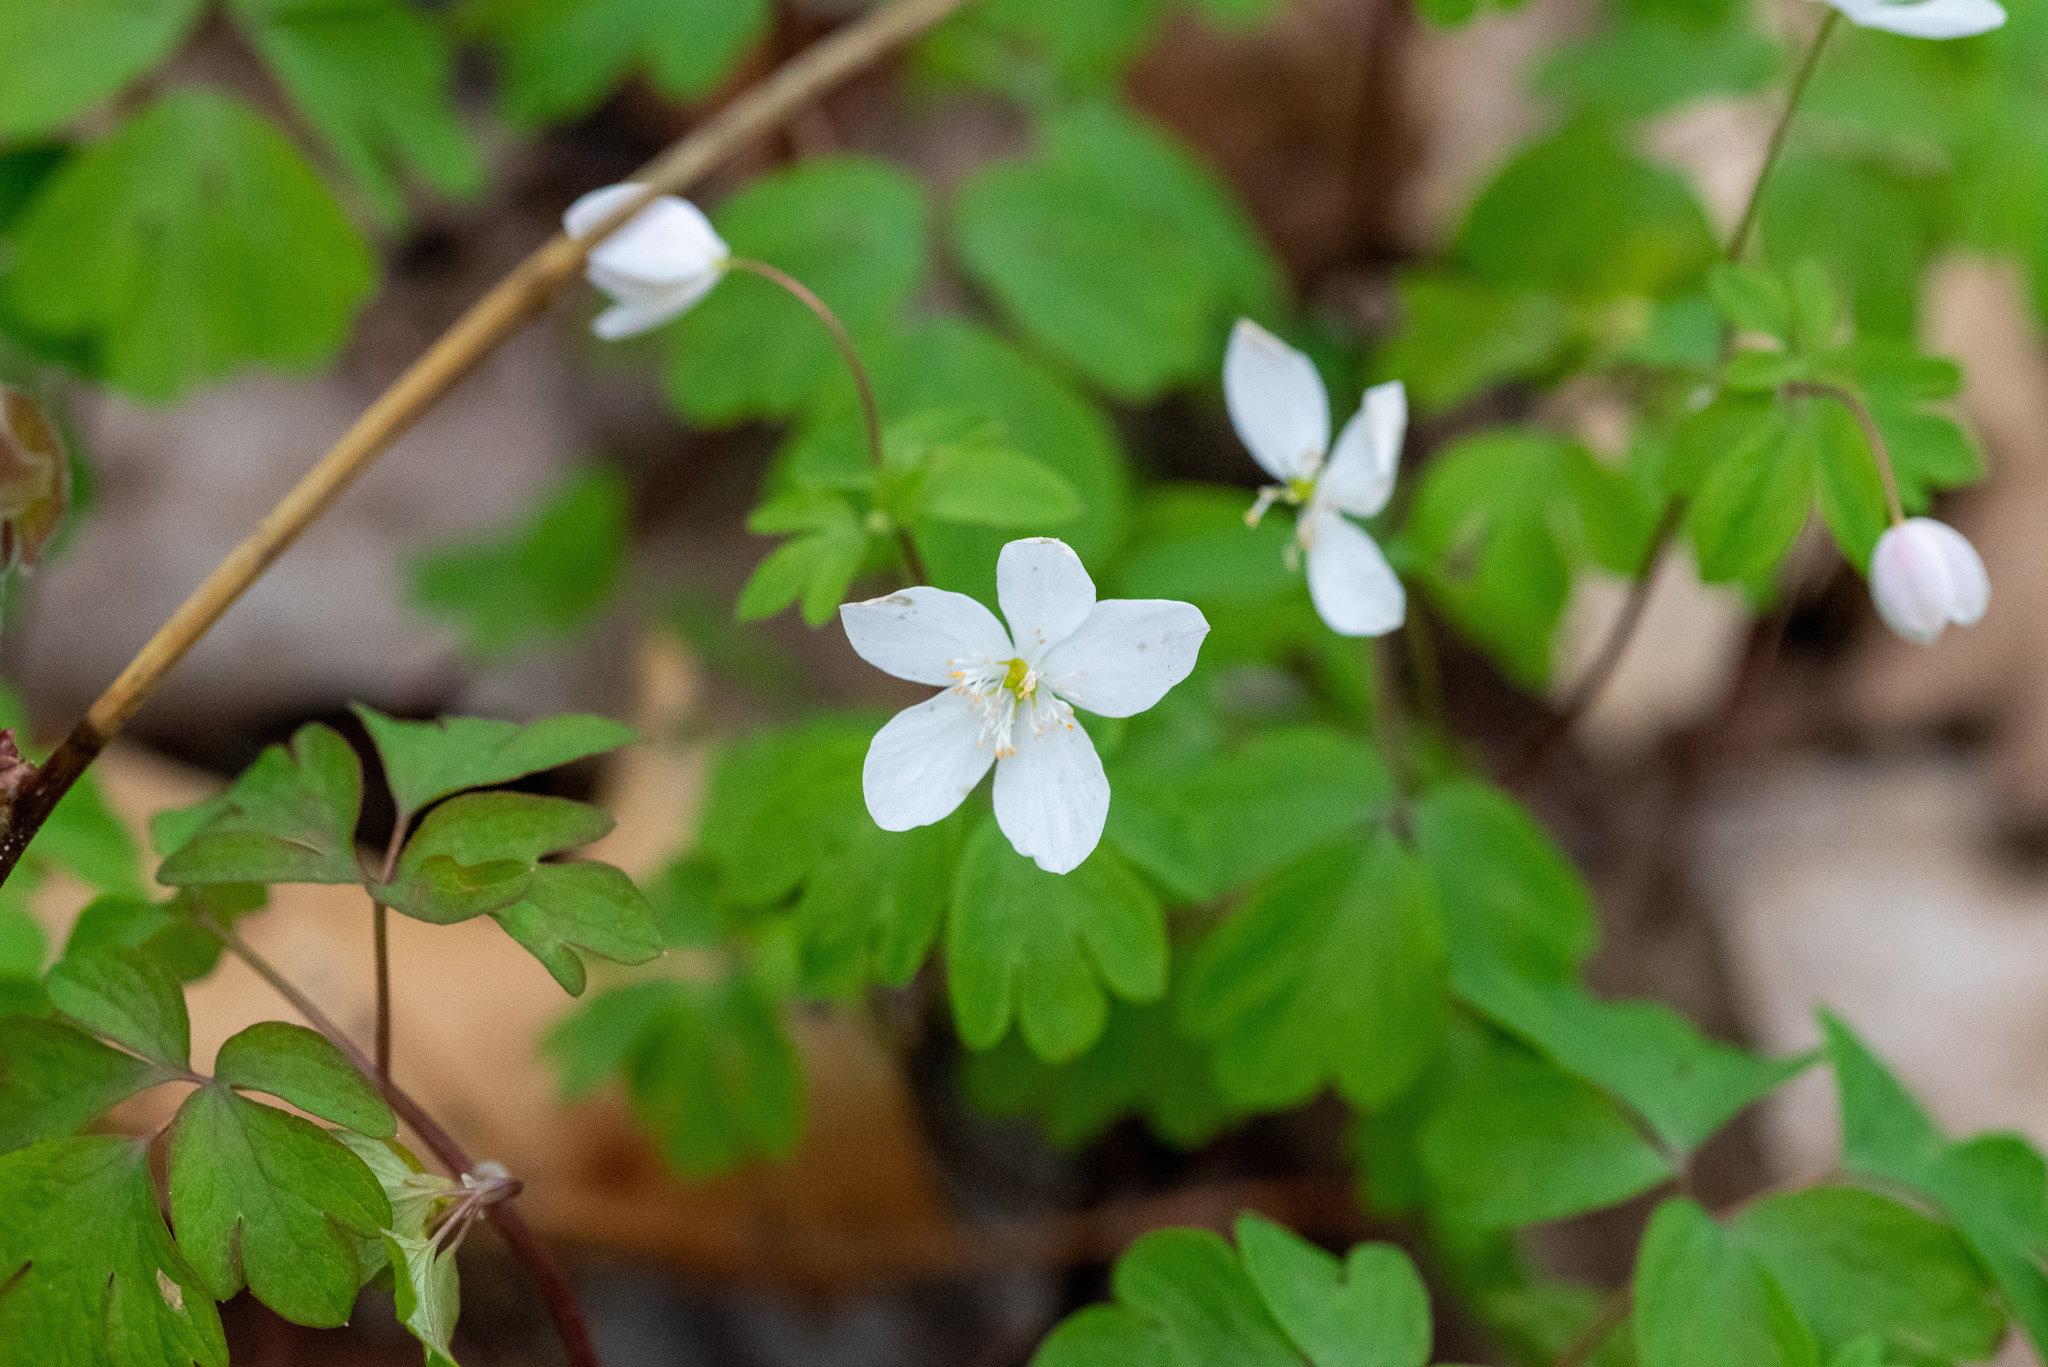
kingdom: Plantae
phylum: Tracheophyta
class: Magnoliopsida
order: Ranunculales
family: Ranunculaceae
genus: Enemion
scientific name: Enemion biternatum
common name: Eastern false rue-anemone
